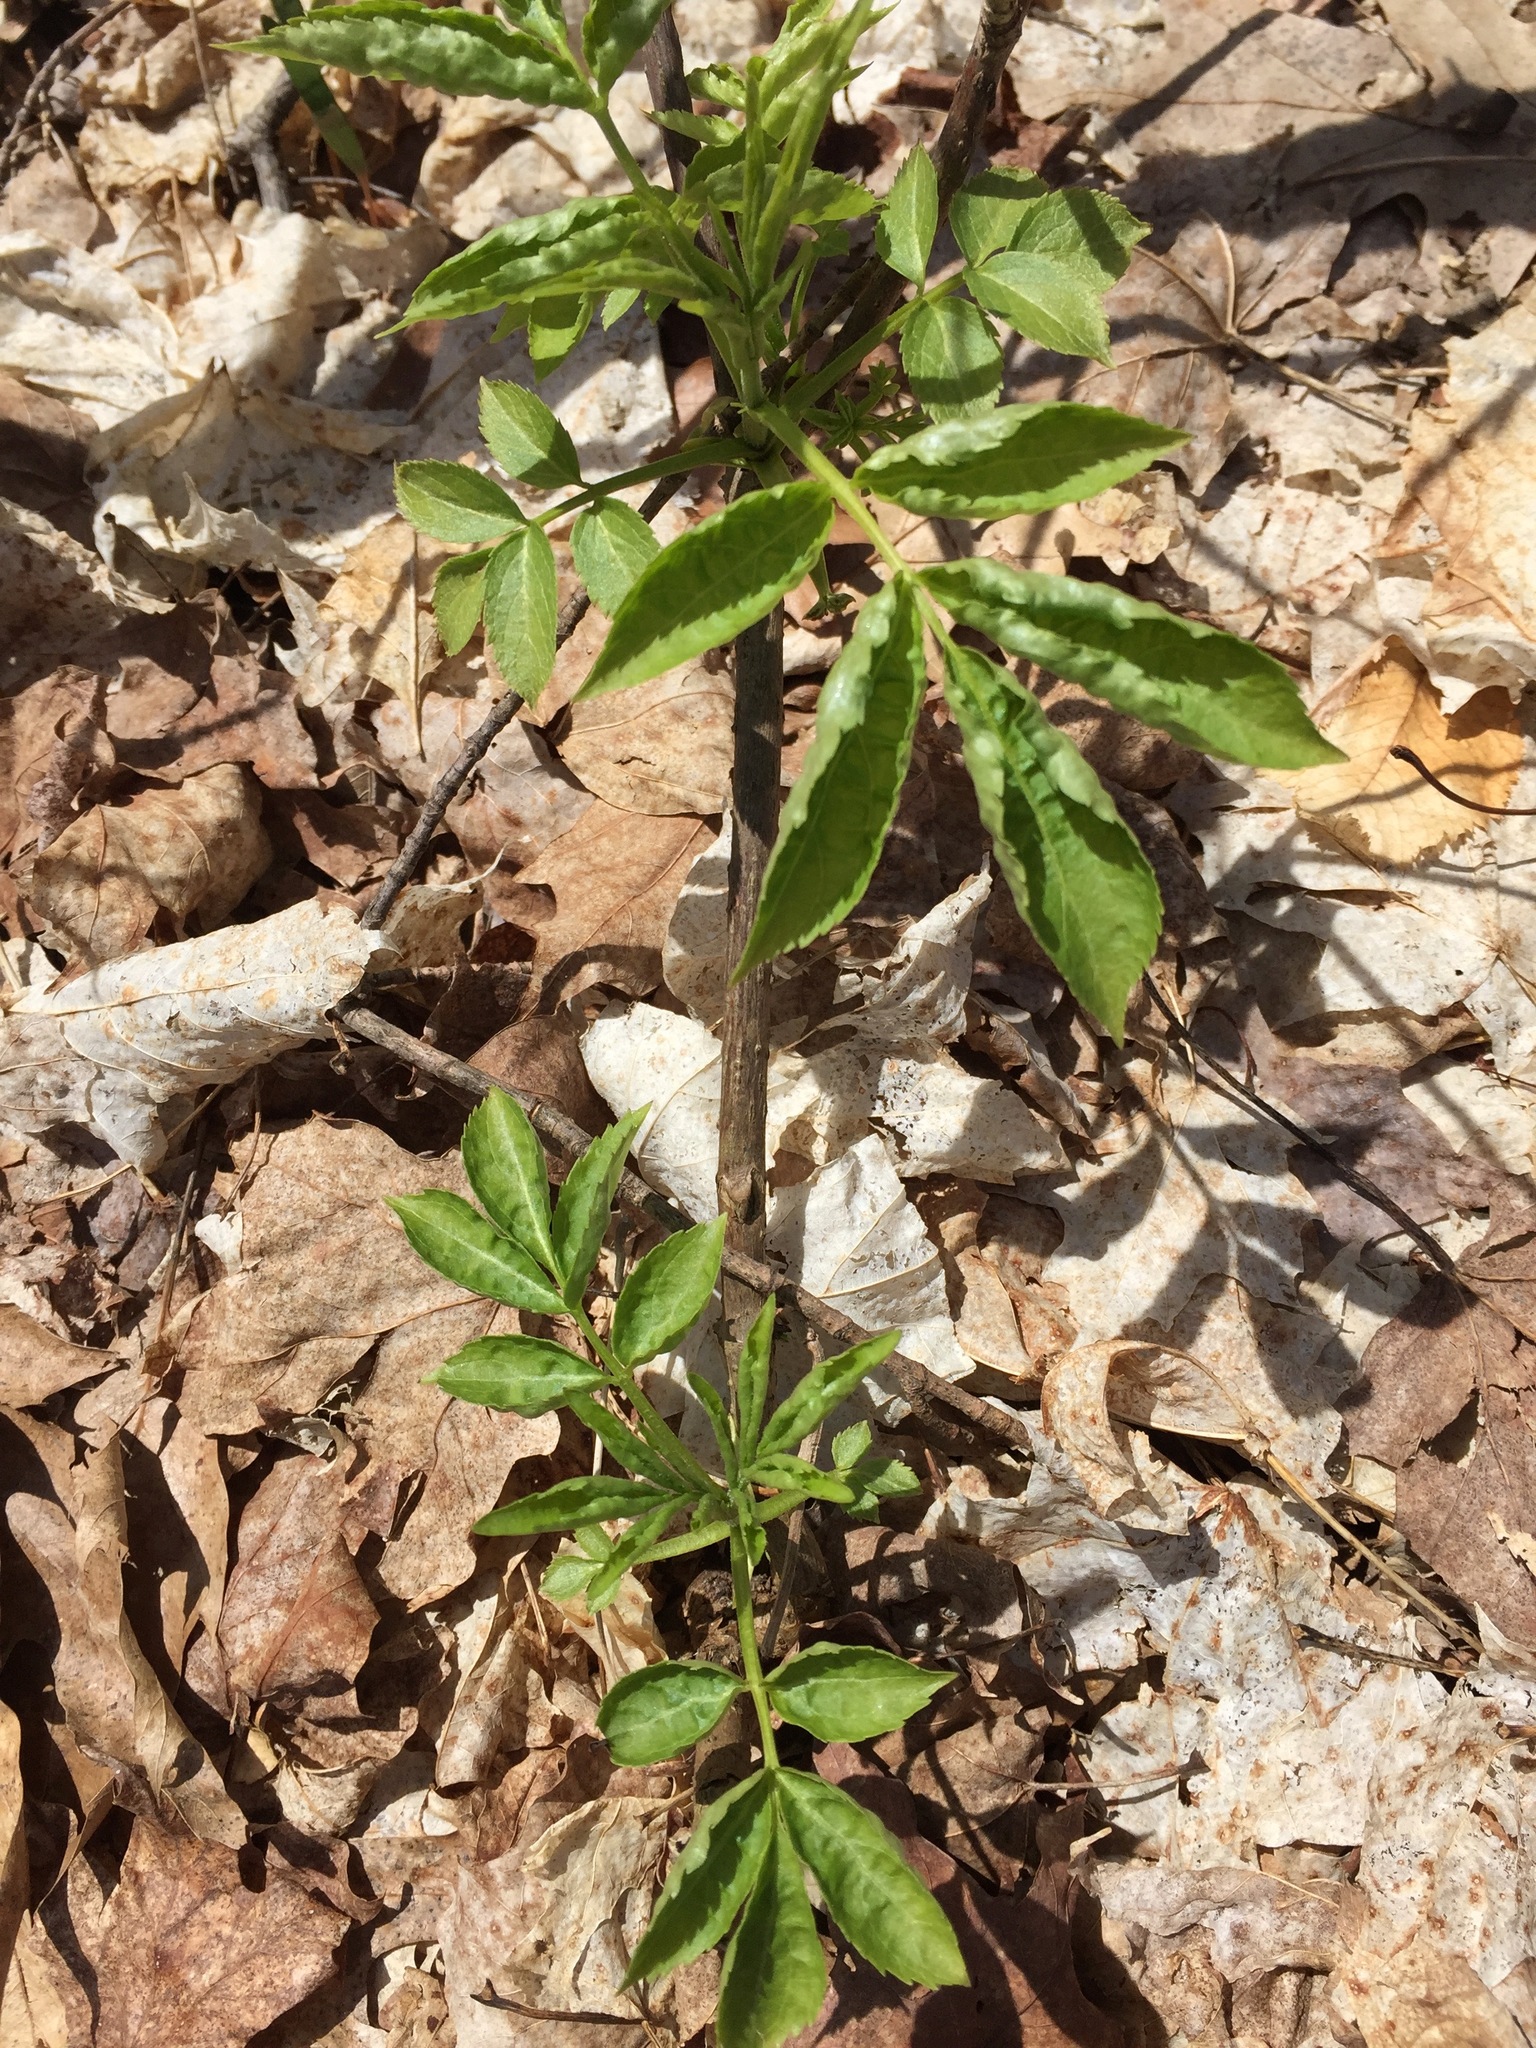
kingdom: Plantae
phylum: Tracheophyta
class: Magnoliopsida
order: Dipsacales
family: Viburnaceae
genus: Sambucus
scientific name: Sambucus racemosa
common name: Red-berried elder
